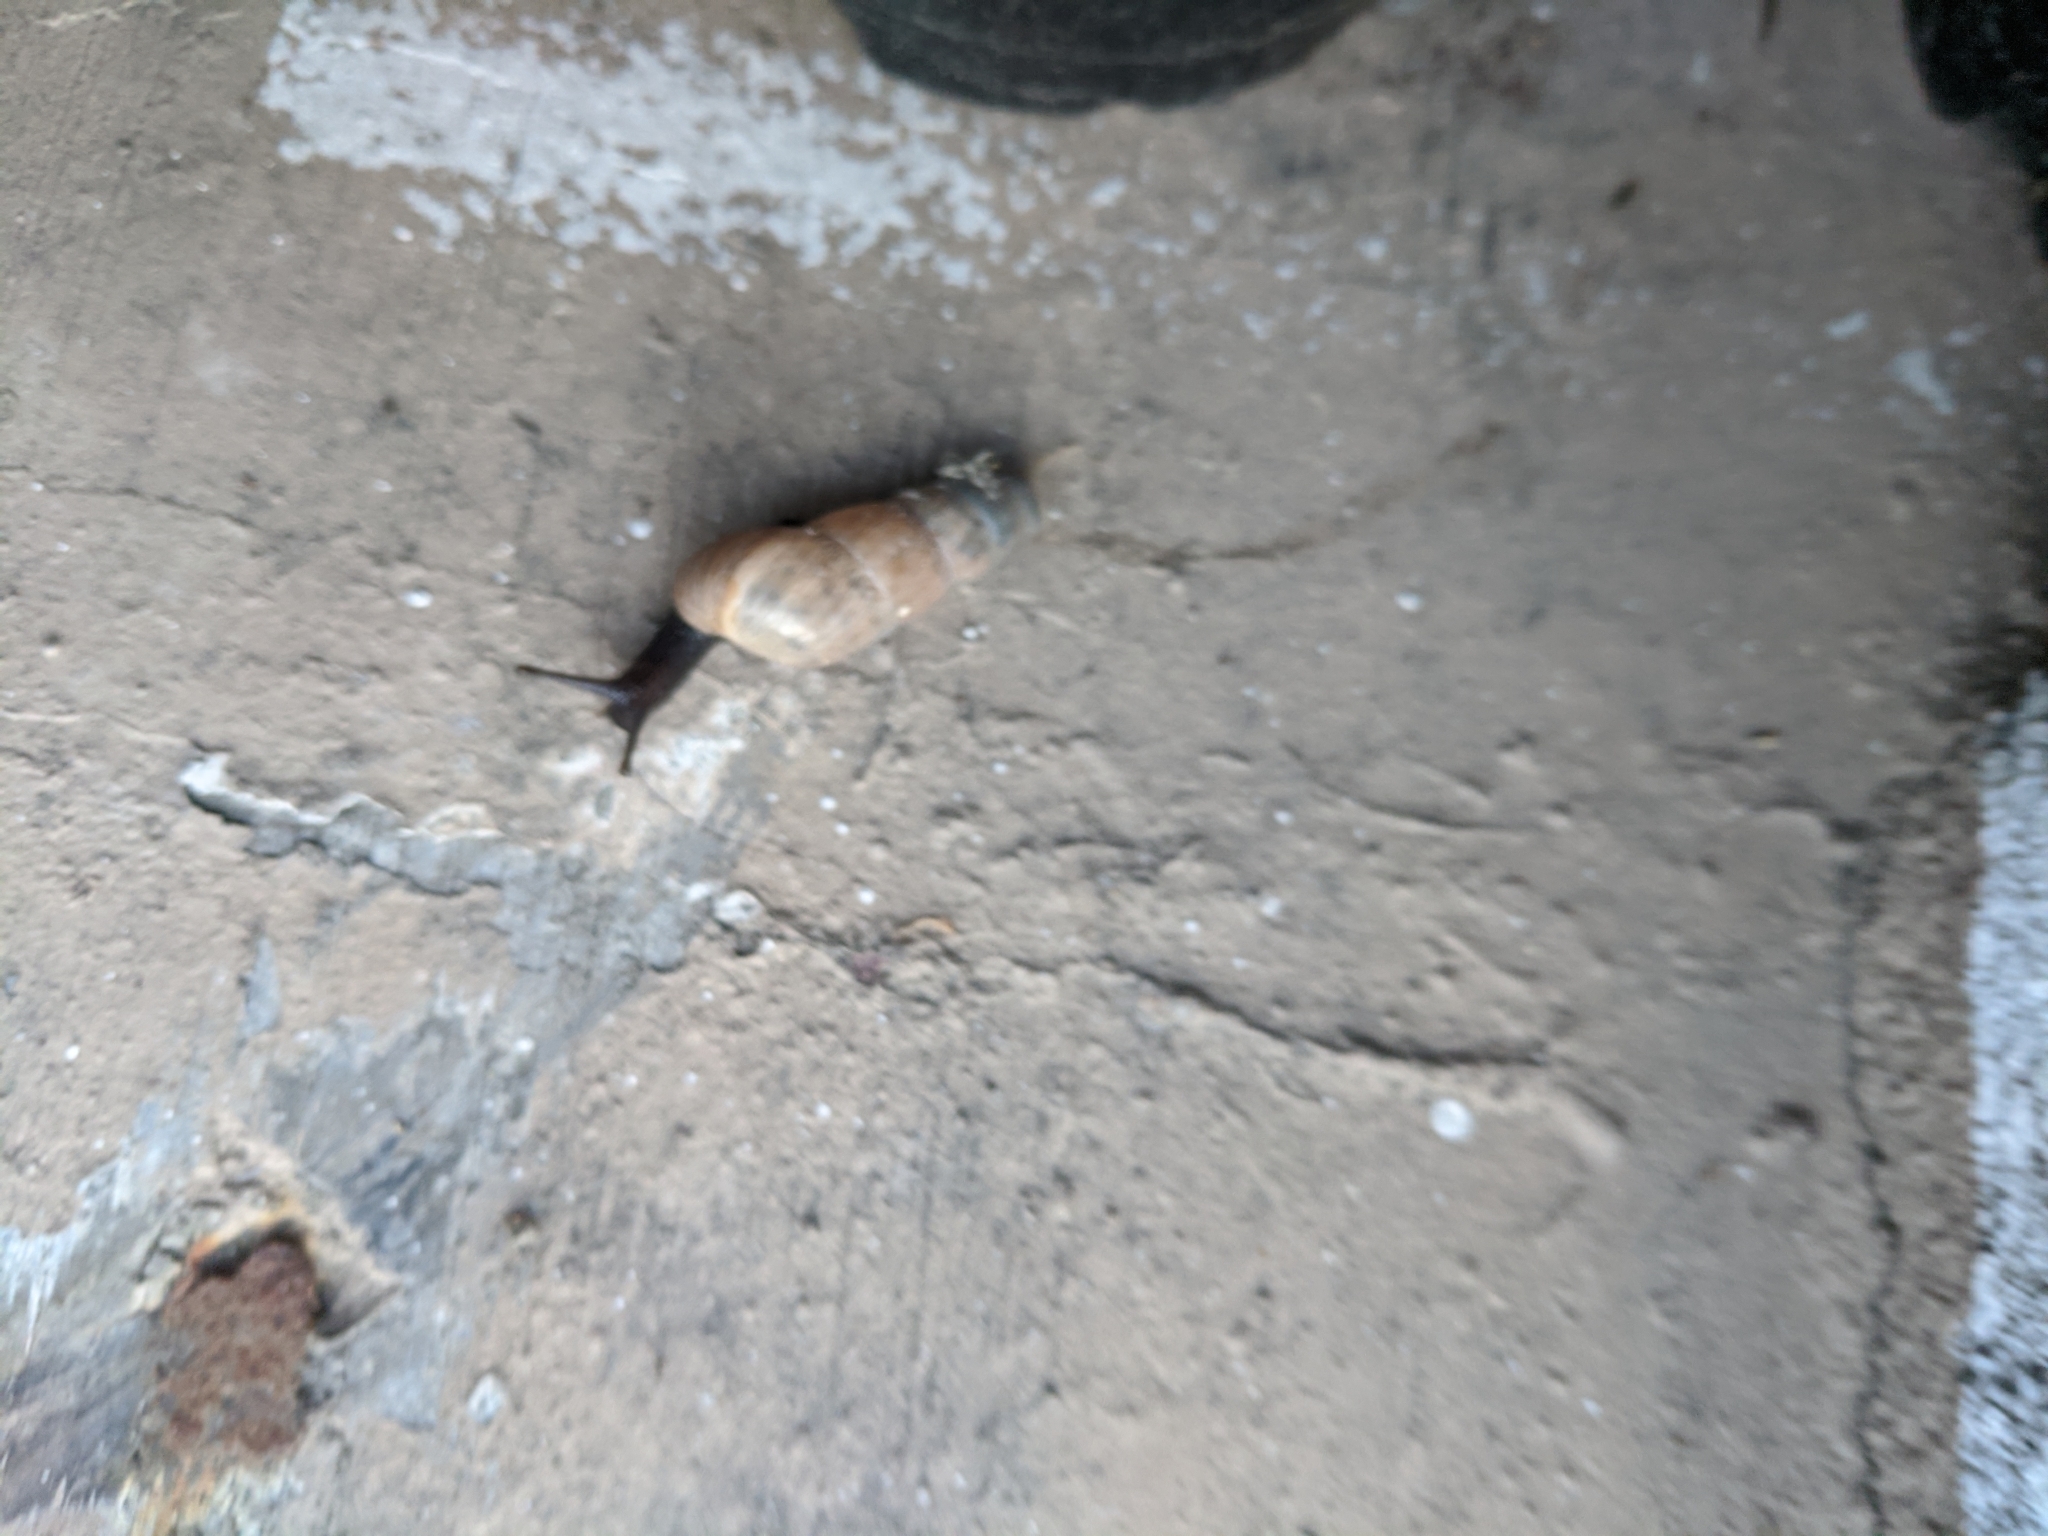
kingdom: Animalia
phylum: Mollusca
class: Gastropoda
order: Stylommatophora
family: Achatinidae
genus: Rumina
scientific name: Rumina decollata
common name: Decollate snail
